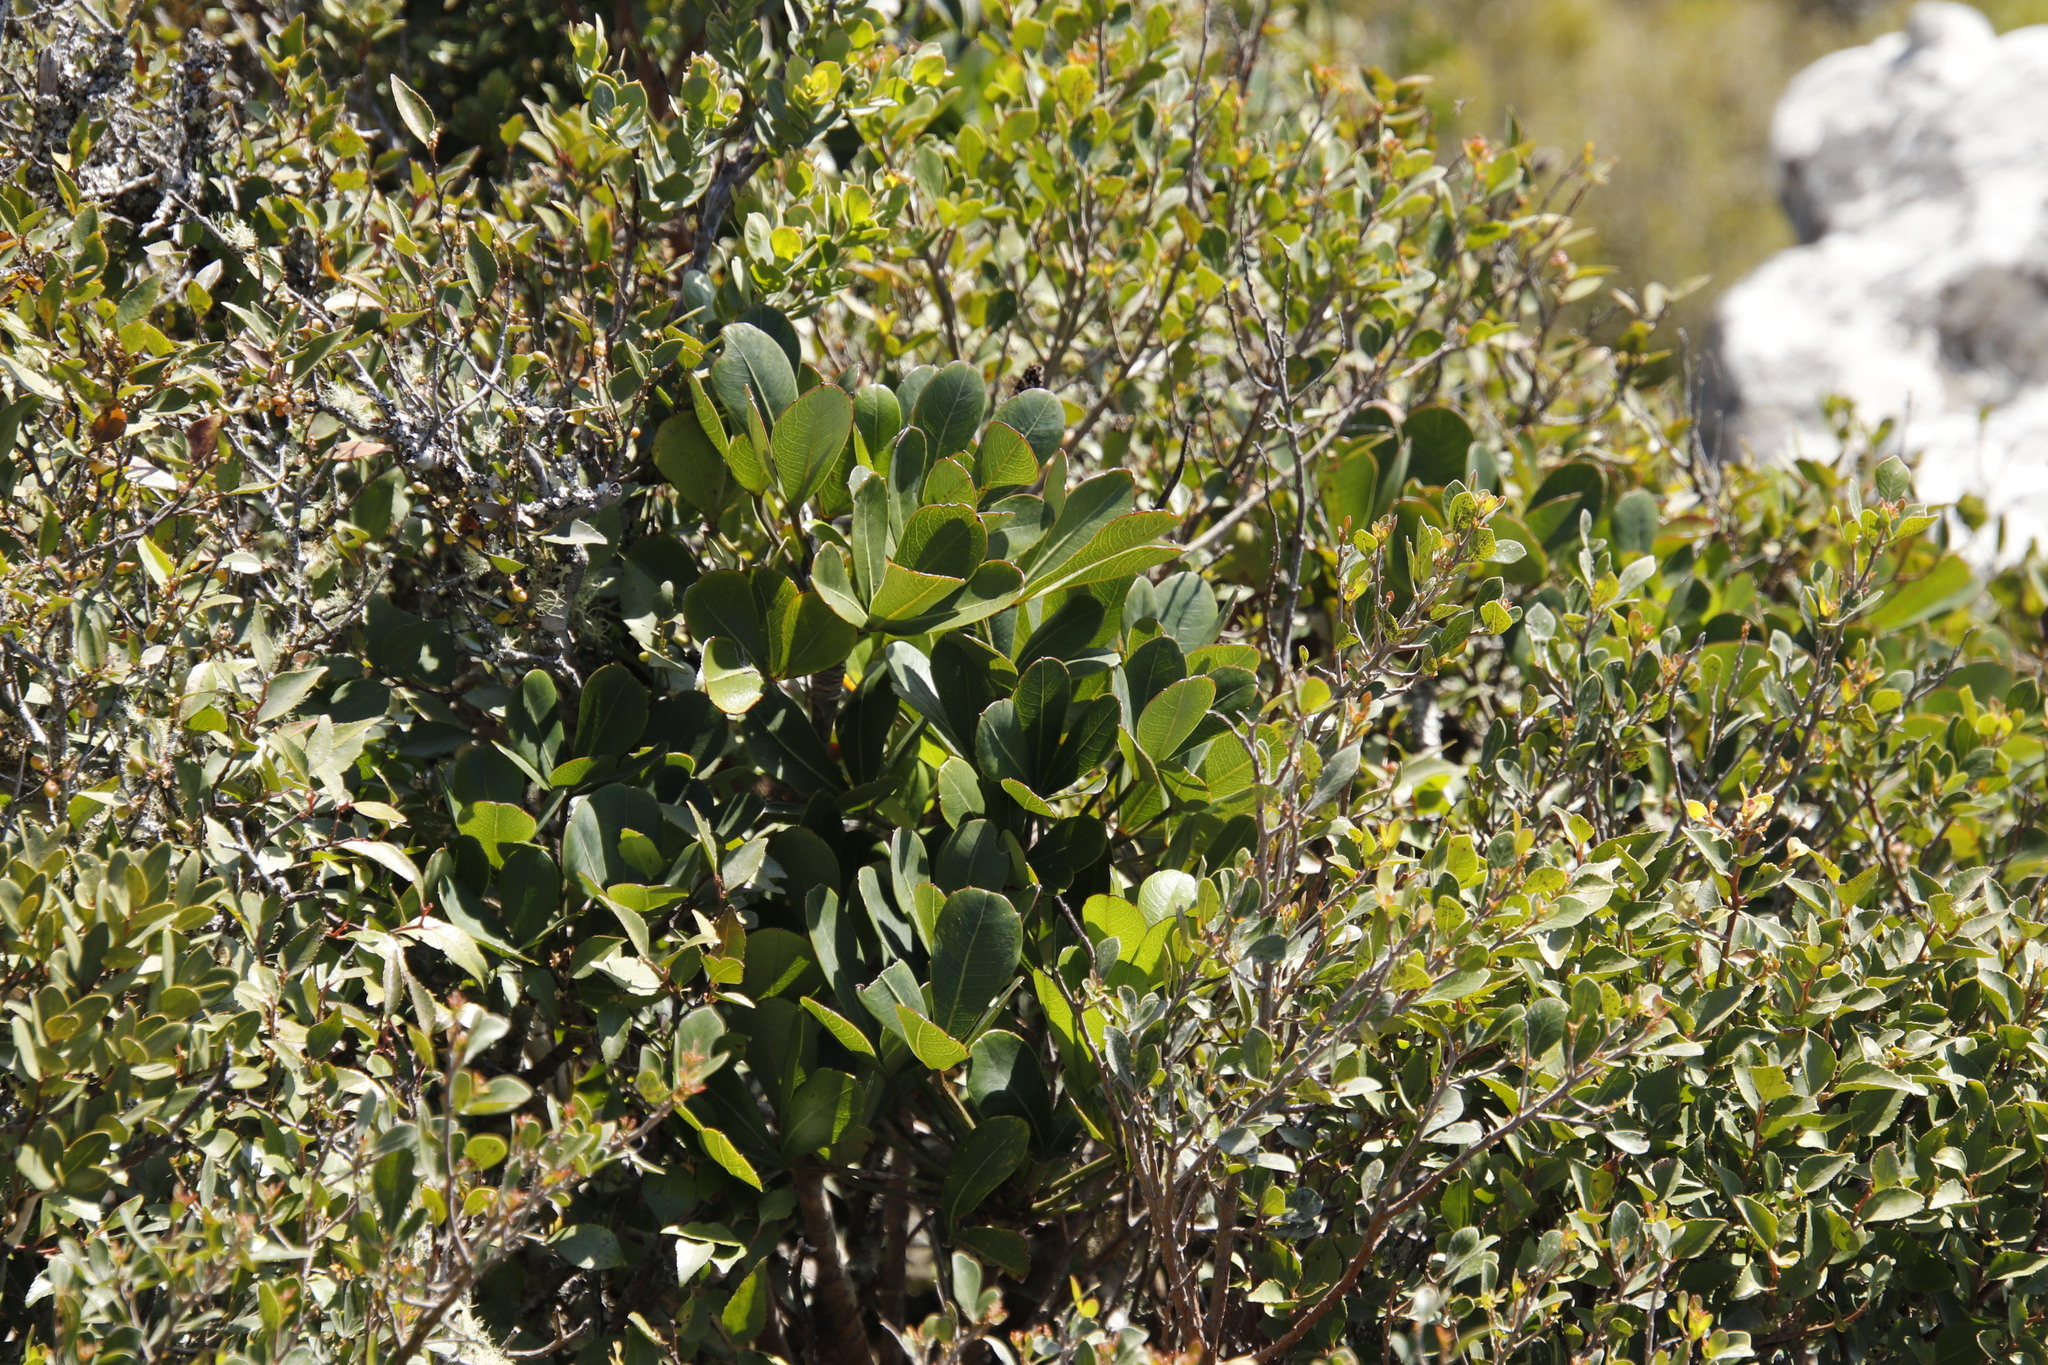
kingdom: Plantae
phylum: Tracheophyta
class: Magnoliopsida
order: Apiales
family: Araliaceae
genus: Cussonia
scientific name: Cussonia thyrsiflora
